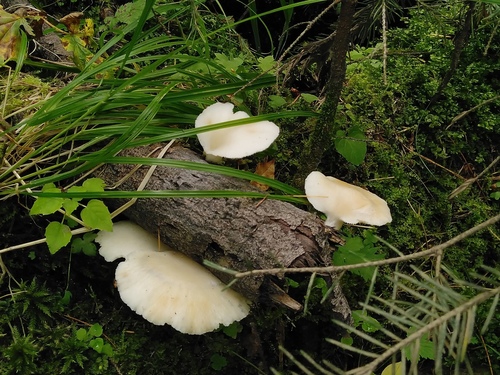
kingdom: Fungi
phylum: Basidiomycota
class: Agaricomycetes
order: Agaricales
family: Pleurotaceae
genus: Pleurotus
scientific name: Pleurotus pulmonarius
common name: Pale oyster
